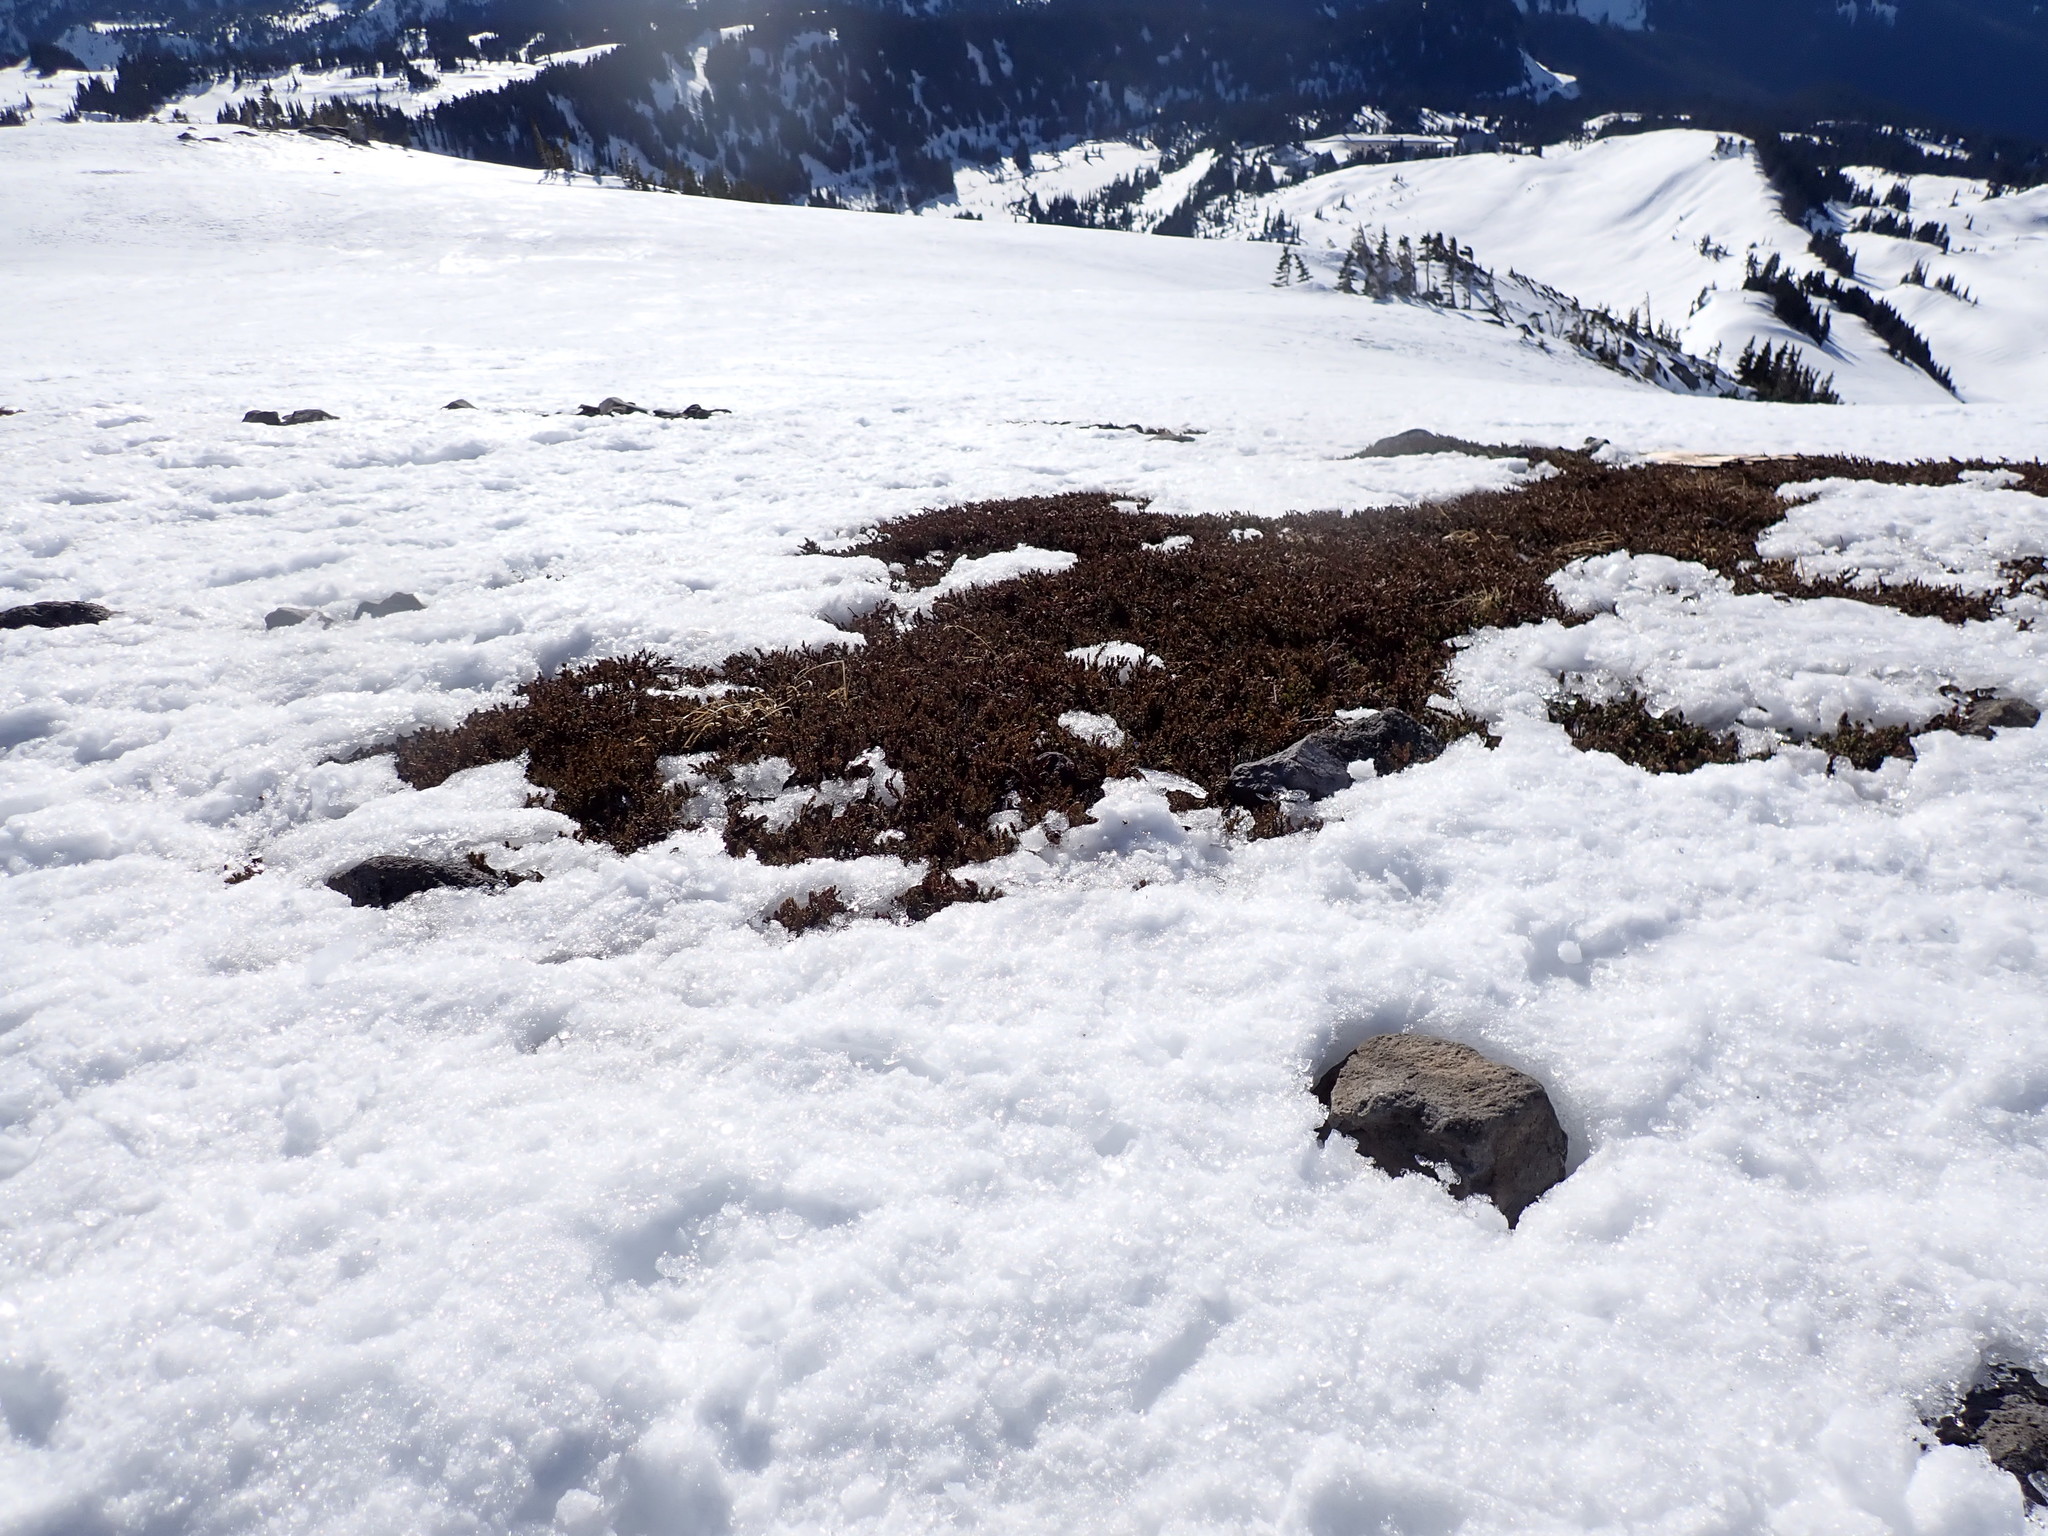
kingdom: Plantae
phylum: Tracheophyta
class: Pinopsida
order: Pinales
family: Cupressaceae
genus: Juniperus
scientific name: Juniperus communis
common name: Common juniper
